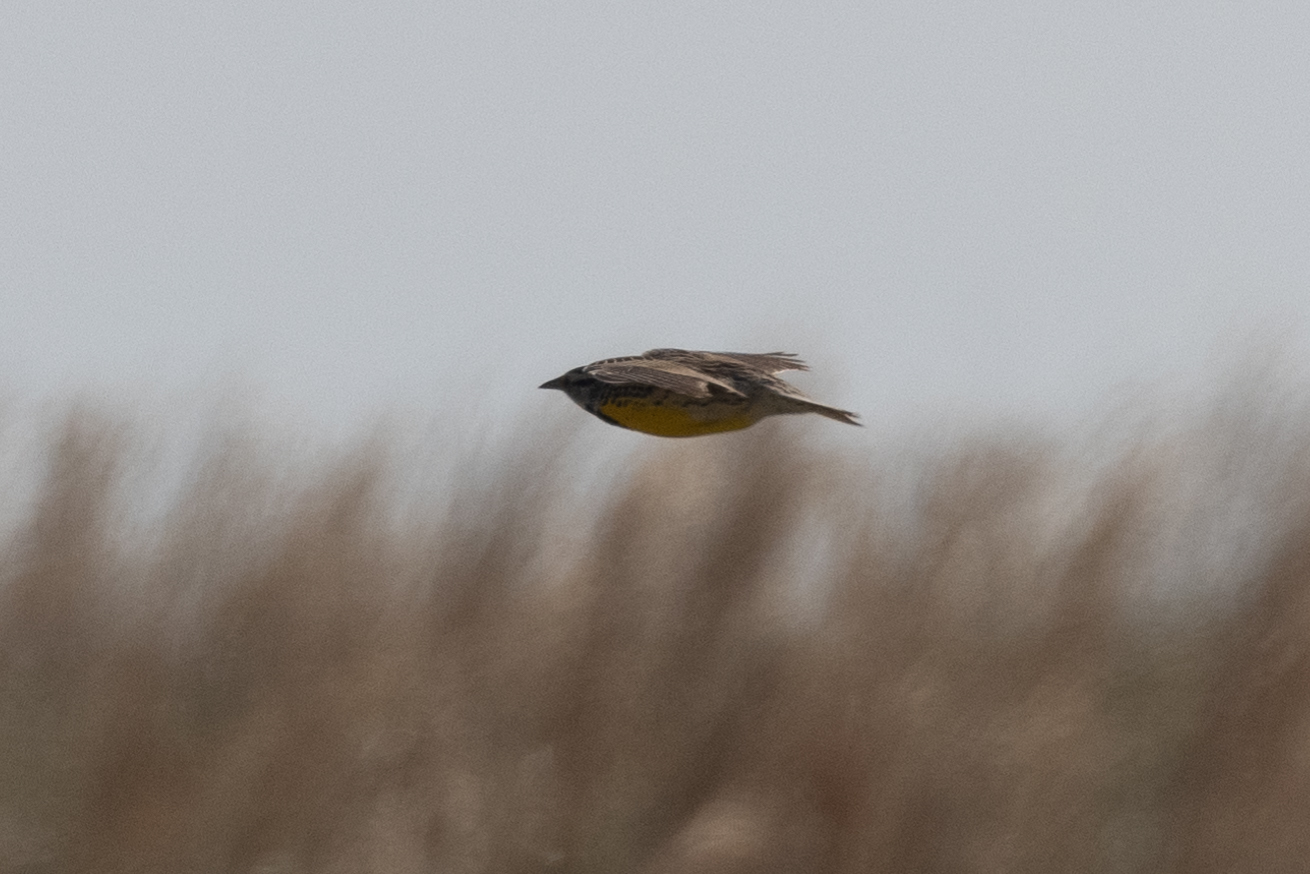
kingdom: Animalia
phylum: Chordata
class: Aves
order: Passeriformes
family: Icteridae
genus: Sturnella
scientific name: Sturnella magna
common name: Eastern meadowlark
